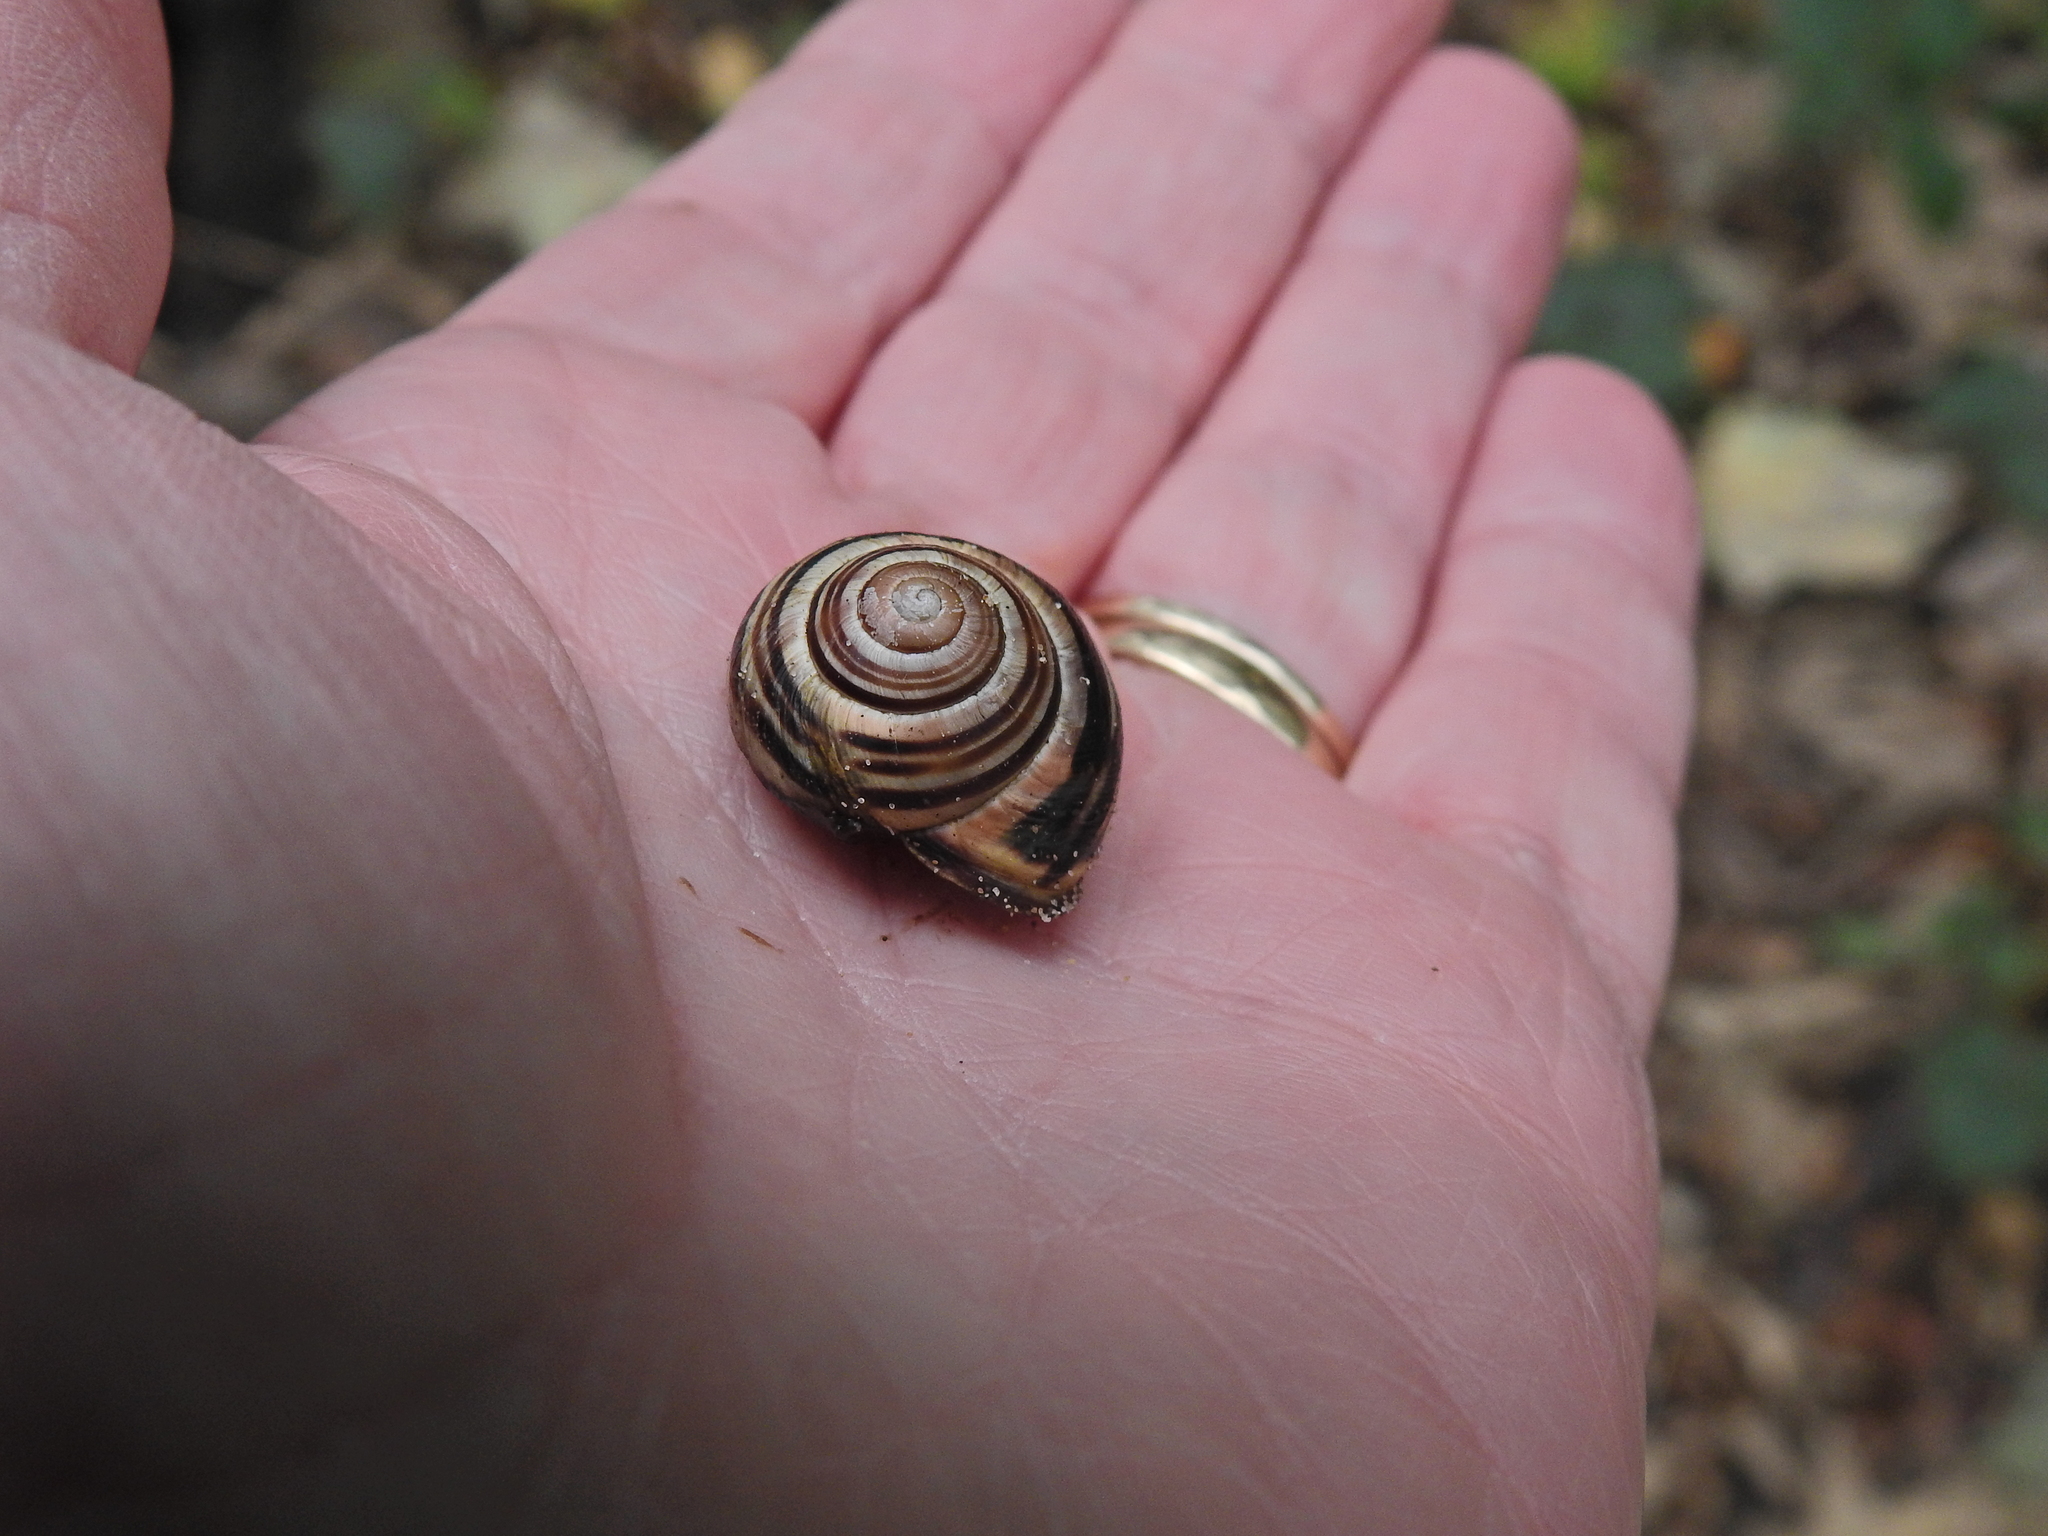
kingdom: Animalia
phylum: Mollusca
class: Gastropoda
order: Stylommatophora
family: Helicidae
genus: Cepaea
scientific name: Cepaea nemoralis
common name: Grovesnail
